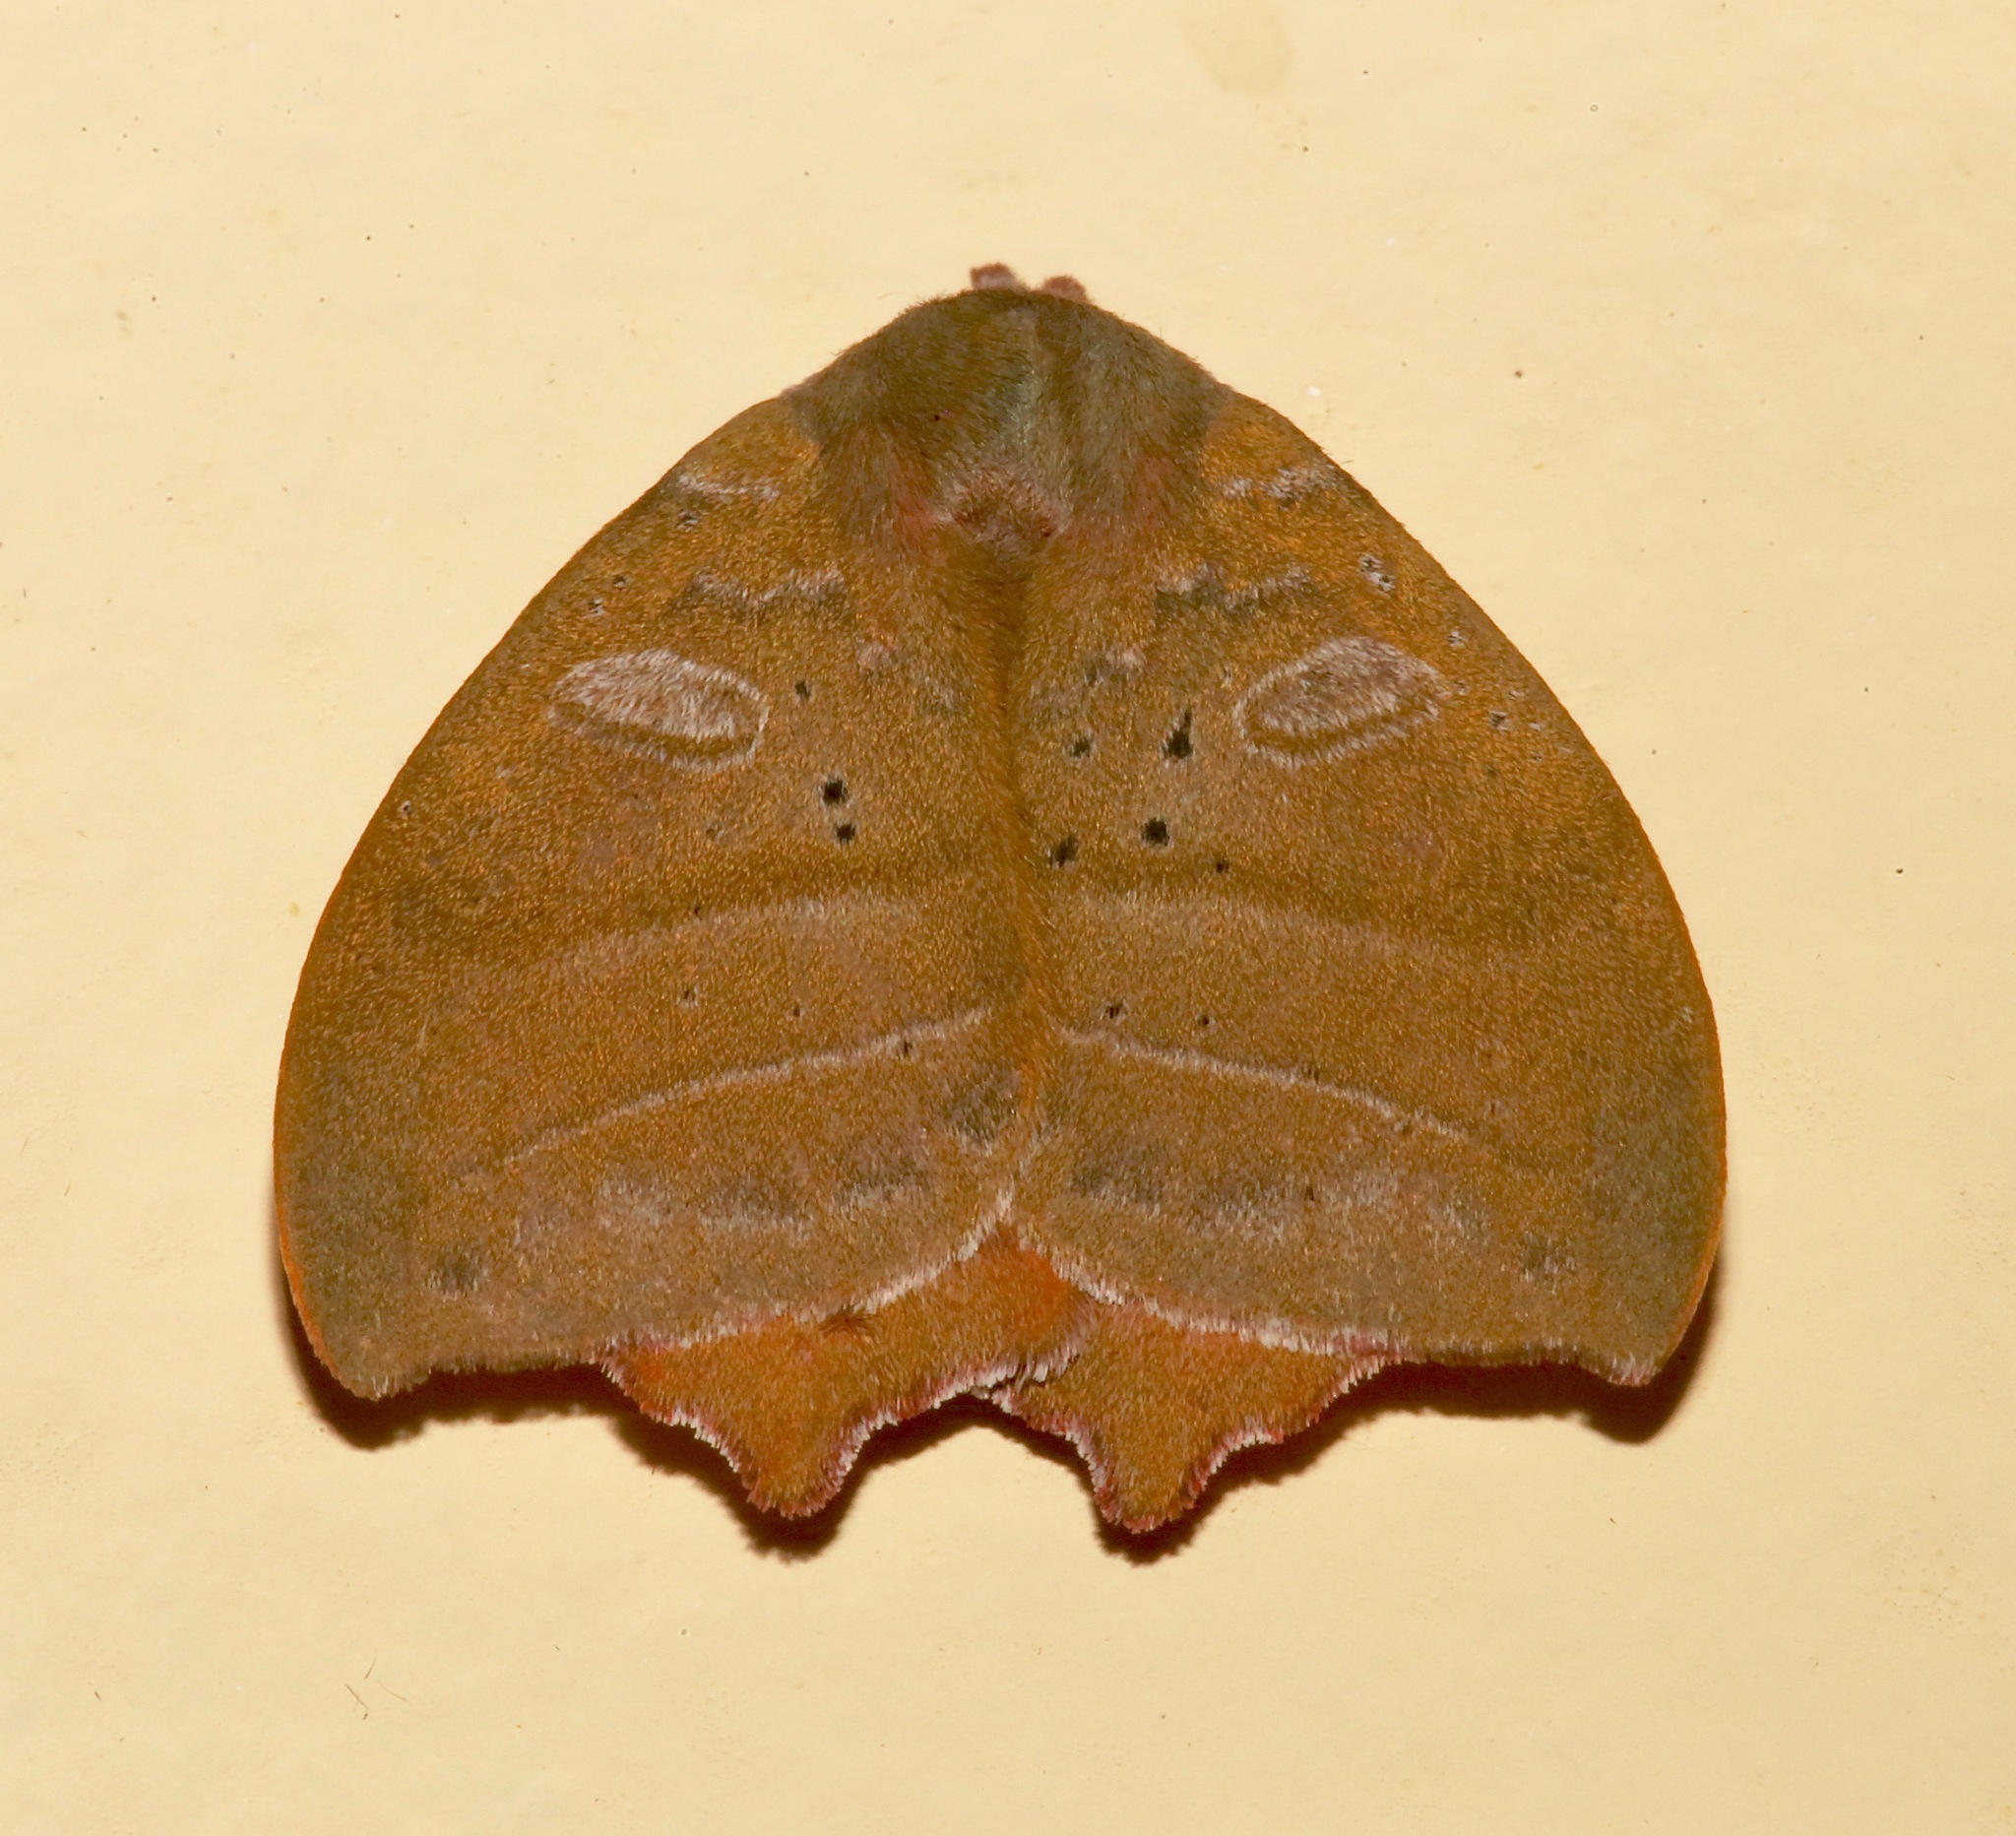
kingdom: Animalia
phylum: Arthropoda
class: Insecta
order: Lepidoptera
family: Saturniidae
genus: Automerina
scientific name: Automerina caudatula
